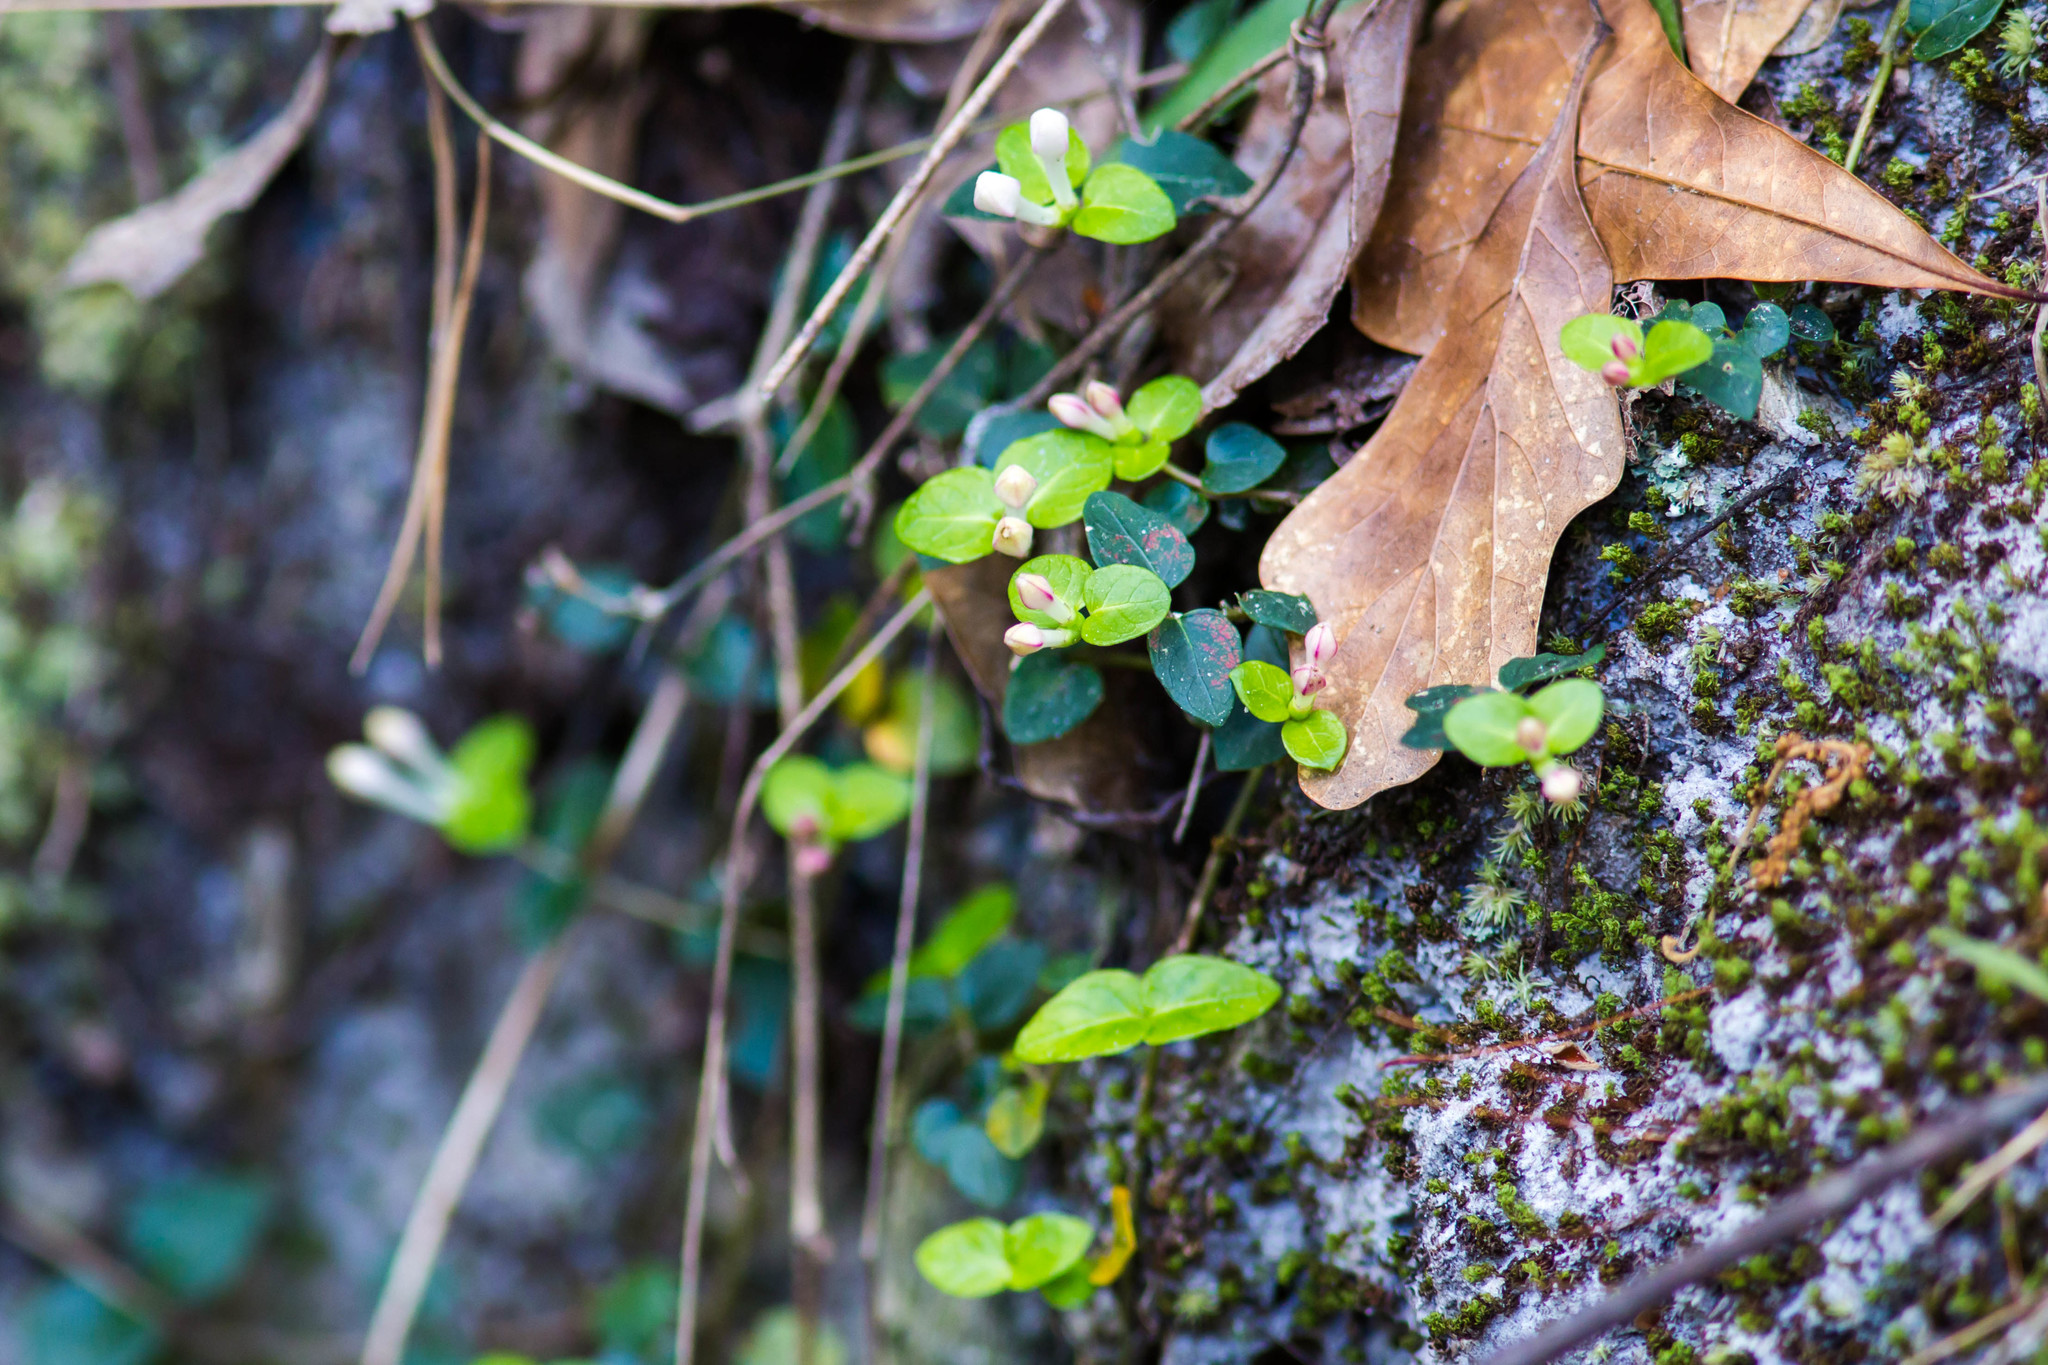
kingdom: Plantae
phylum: Tracheophyta
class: Magnoliopsida
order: Gentianales
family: Rubiaceae
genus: Mitchella
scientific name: Mitchella repens
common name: Partridge-berry
